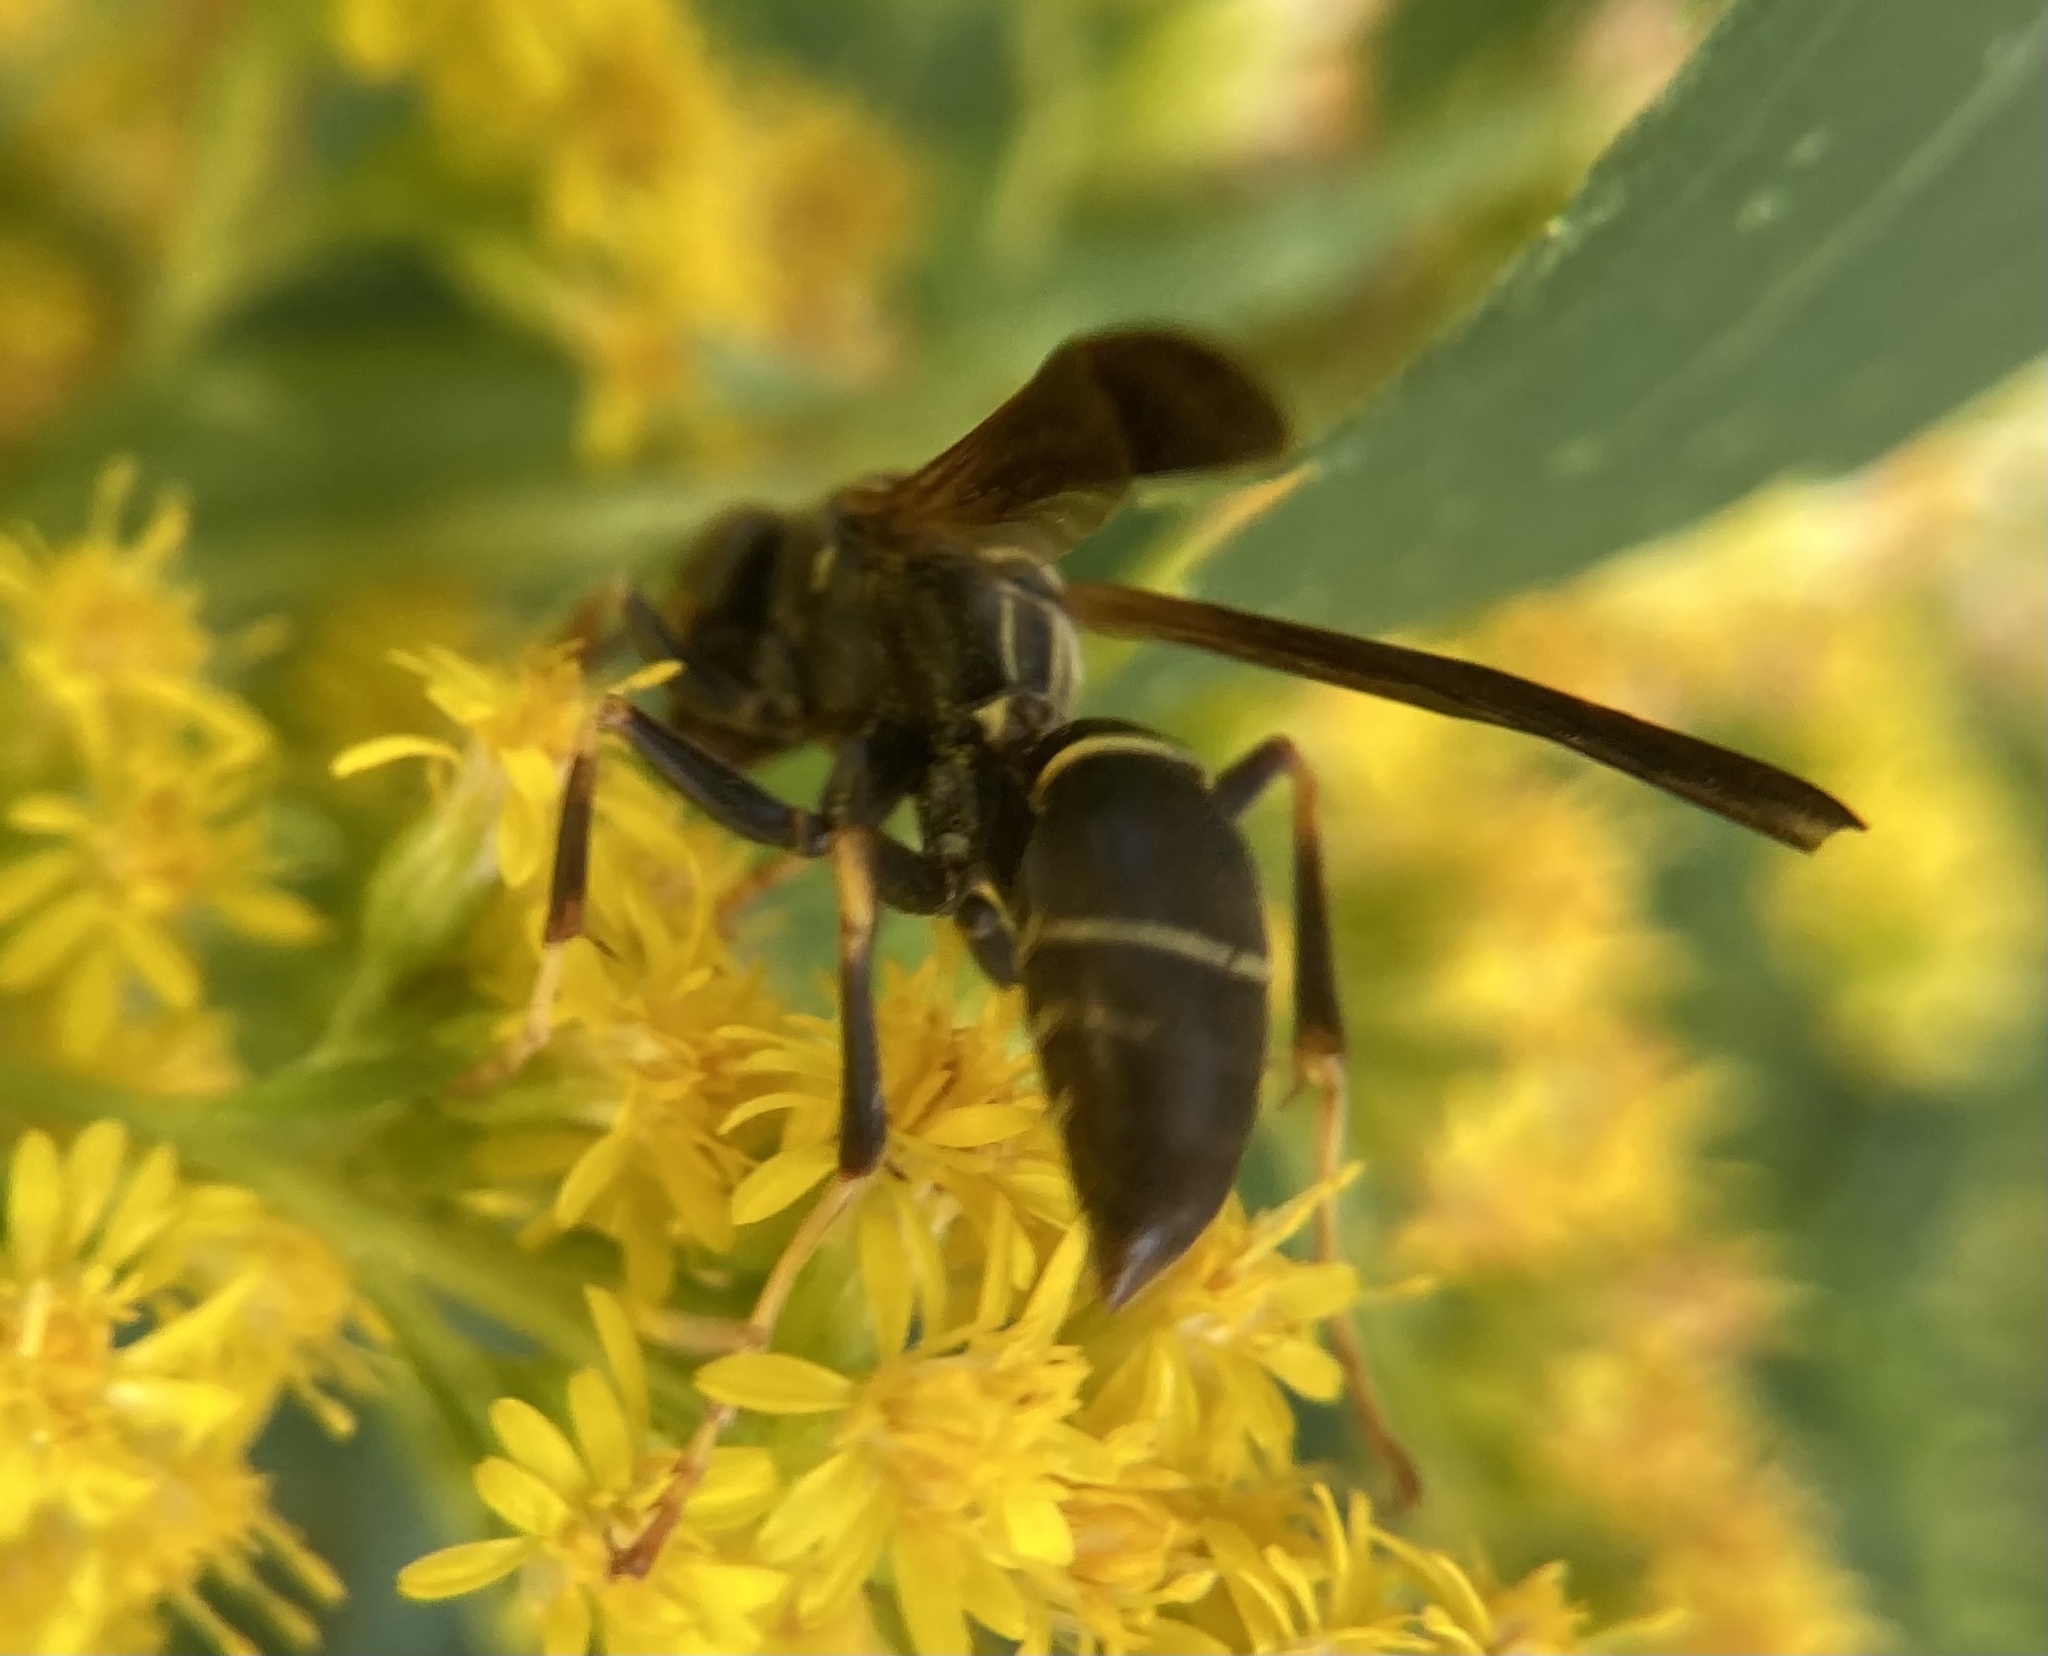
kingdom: Animalia
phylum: Arthropoda
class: Insecta
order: Hymenoptera
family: Eumenidae
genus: Polistes
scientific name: Polistes fuscatus
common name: Dark paper wasp
